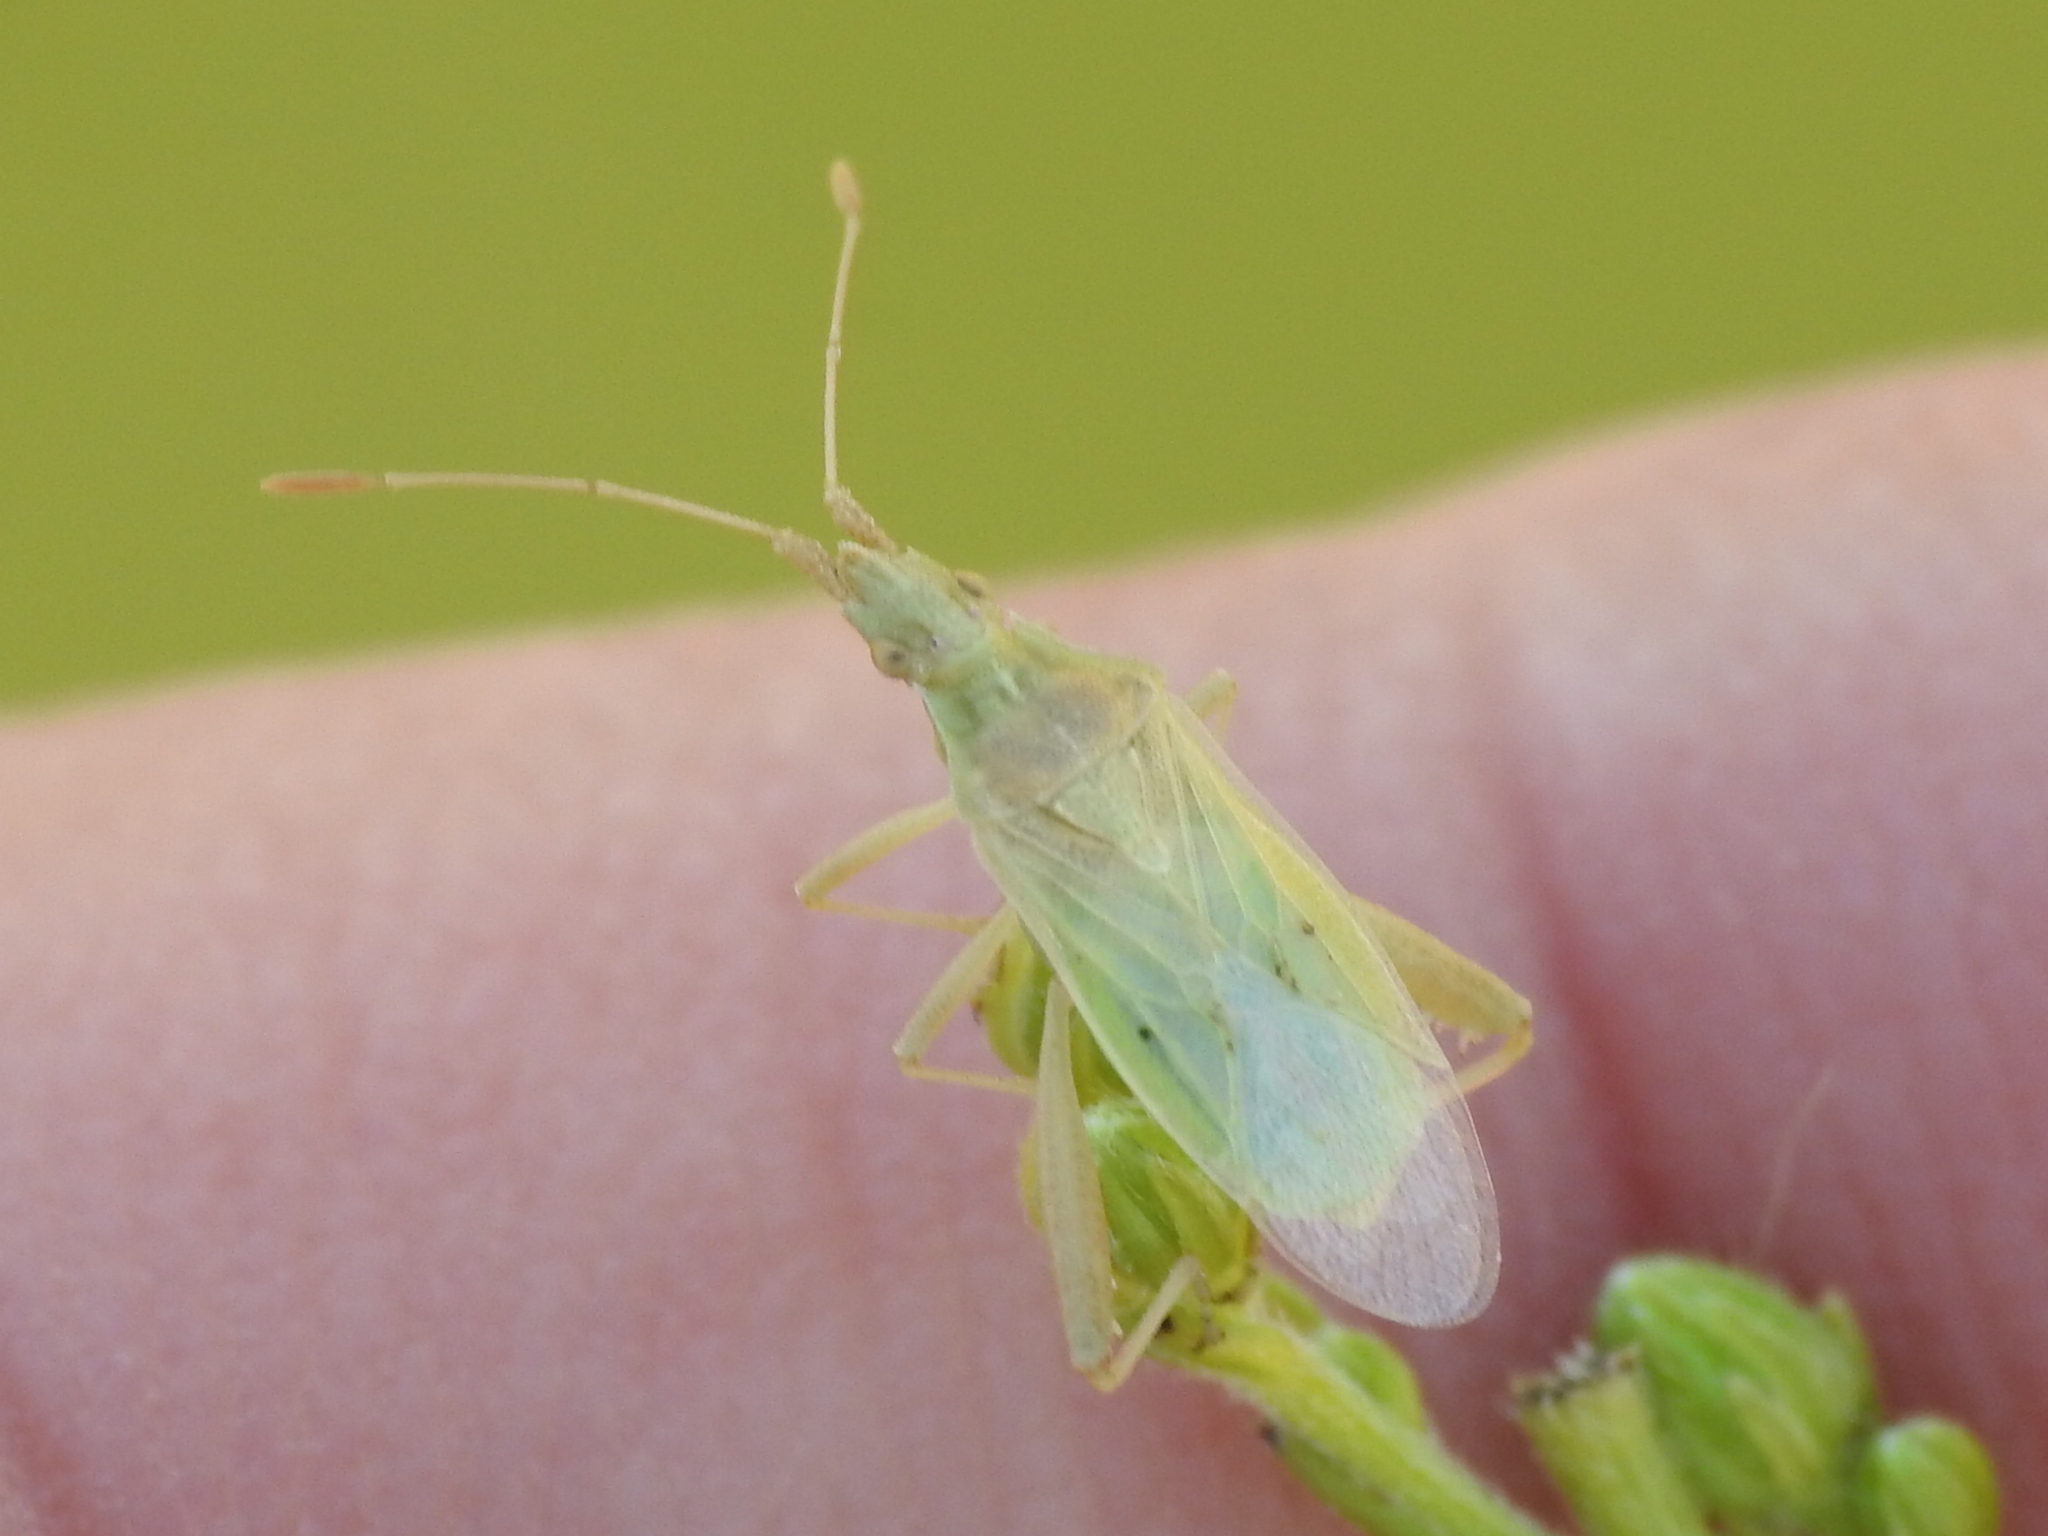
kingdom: Animalia
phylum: Arthropoda
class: Insecta
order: Hemiptera
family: Rhopalidae
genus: Harmostes
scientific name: Harmostes reflexulus
